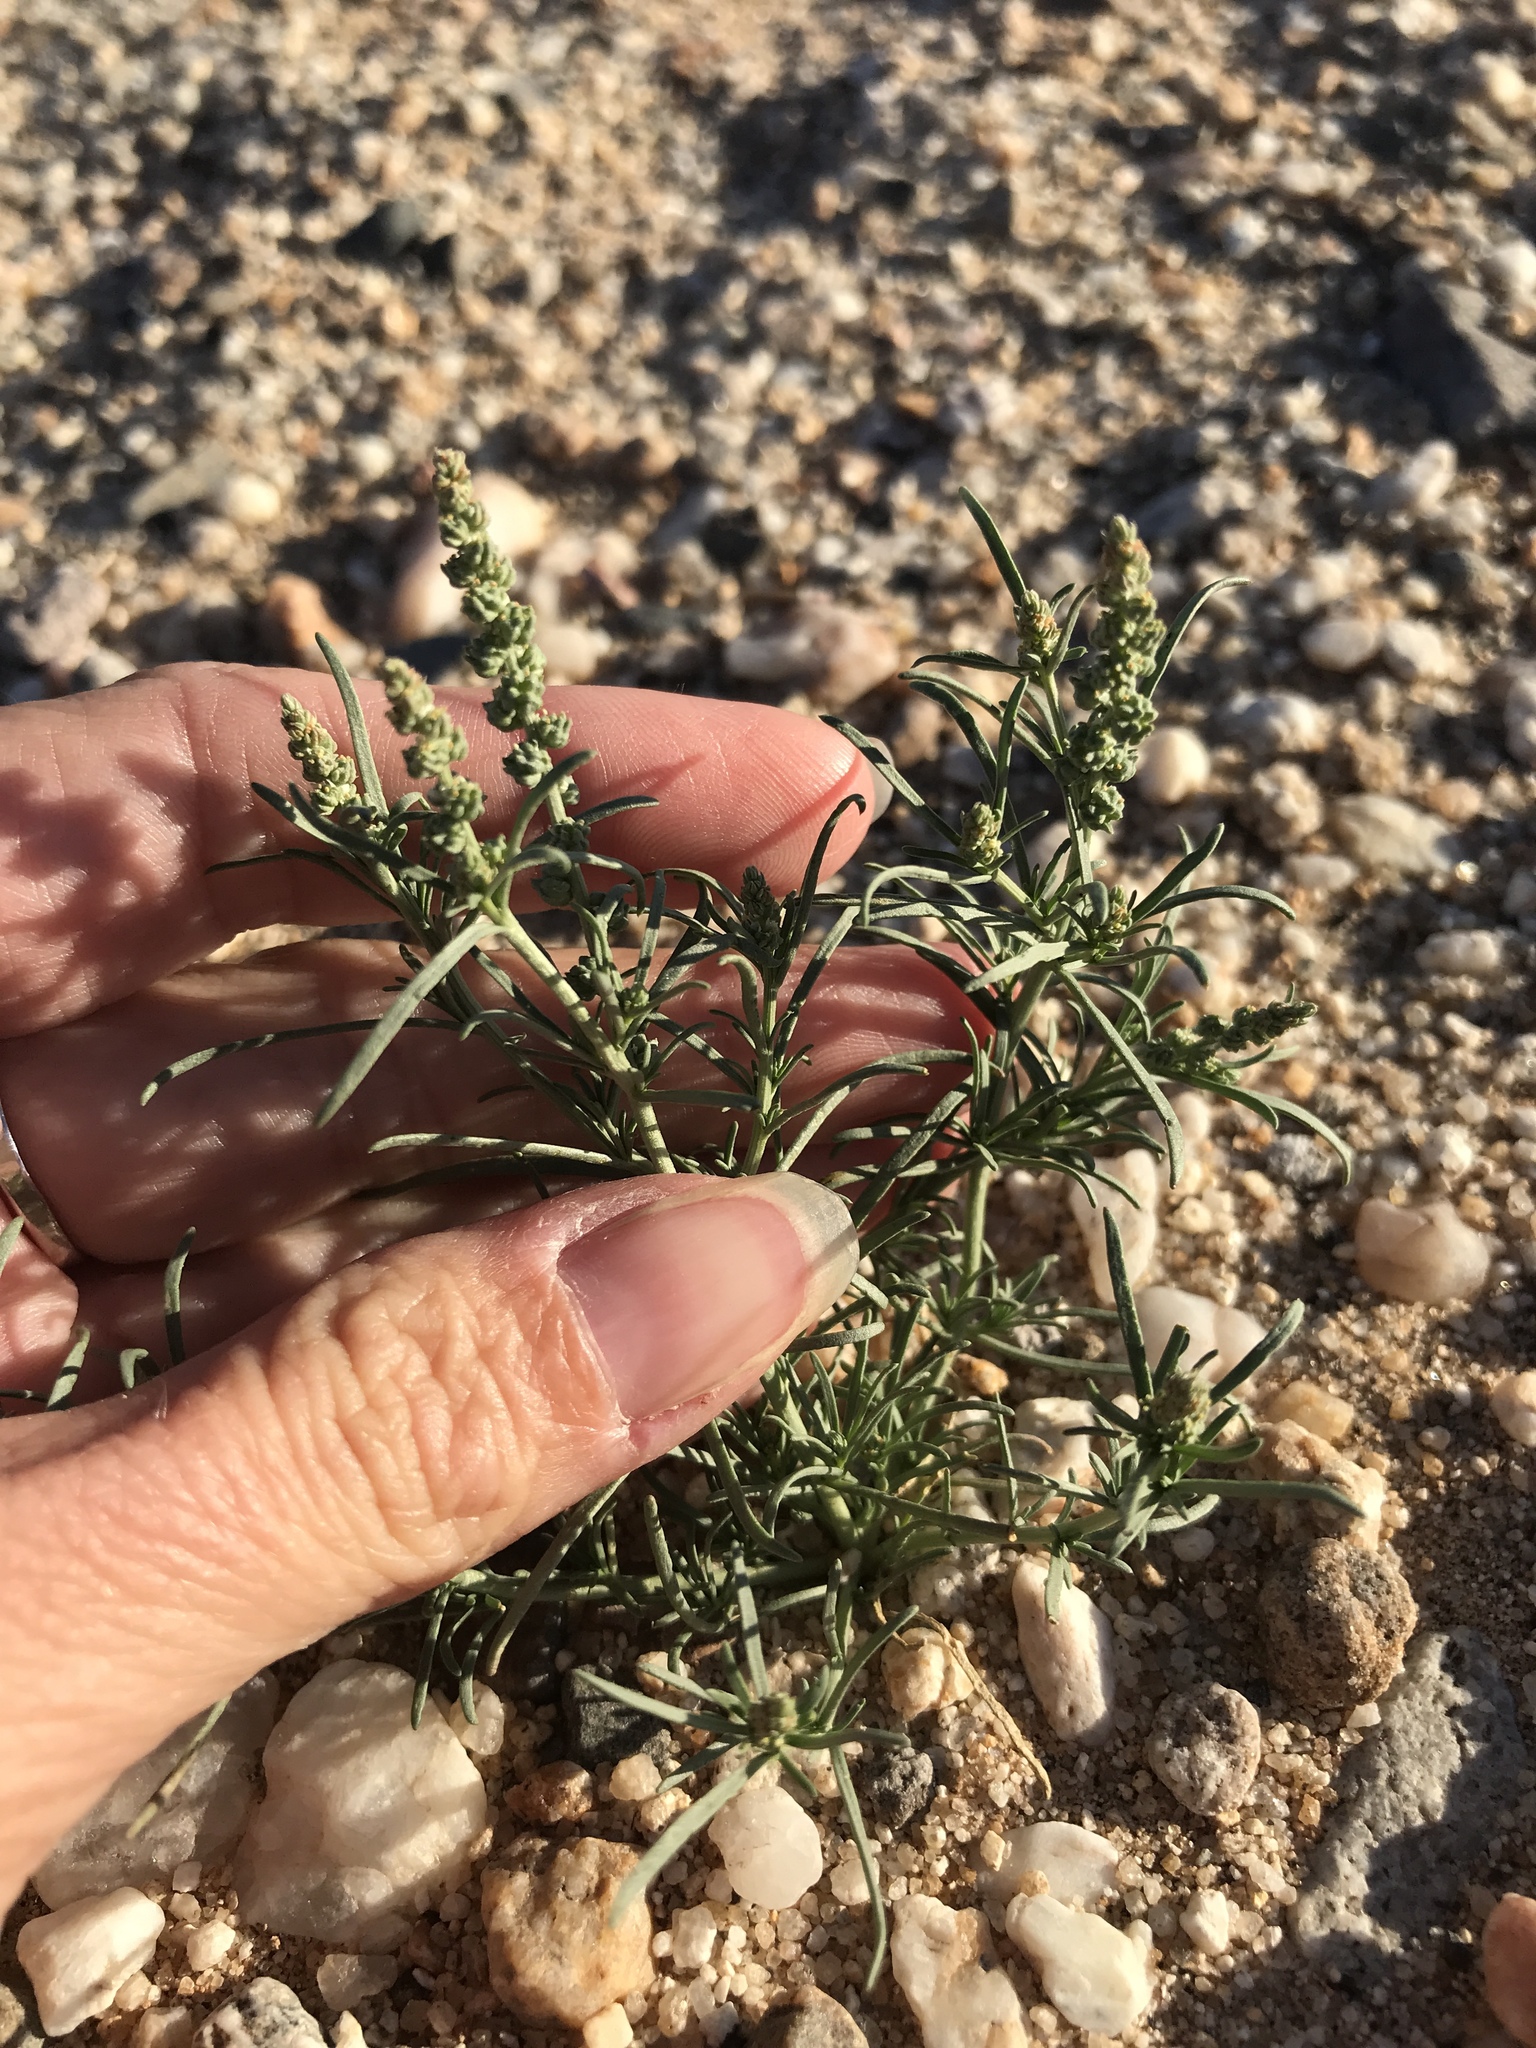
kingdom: Plantae
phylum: Tracheophyta
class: Magnoliopsida
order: Brassicales
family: Resedaceae
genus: Oligomeris
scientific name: Oligomeris linifolia
